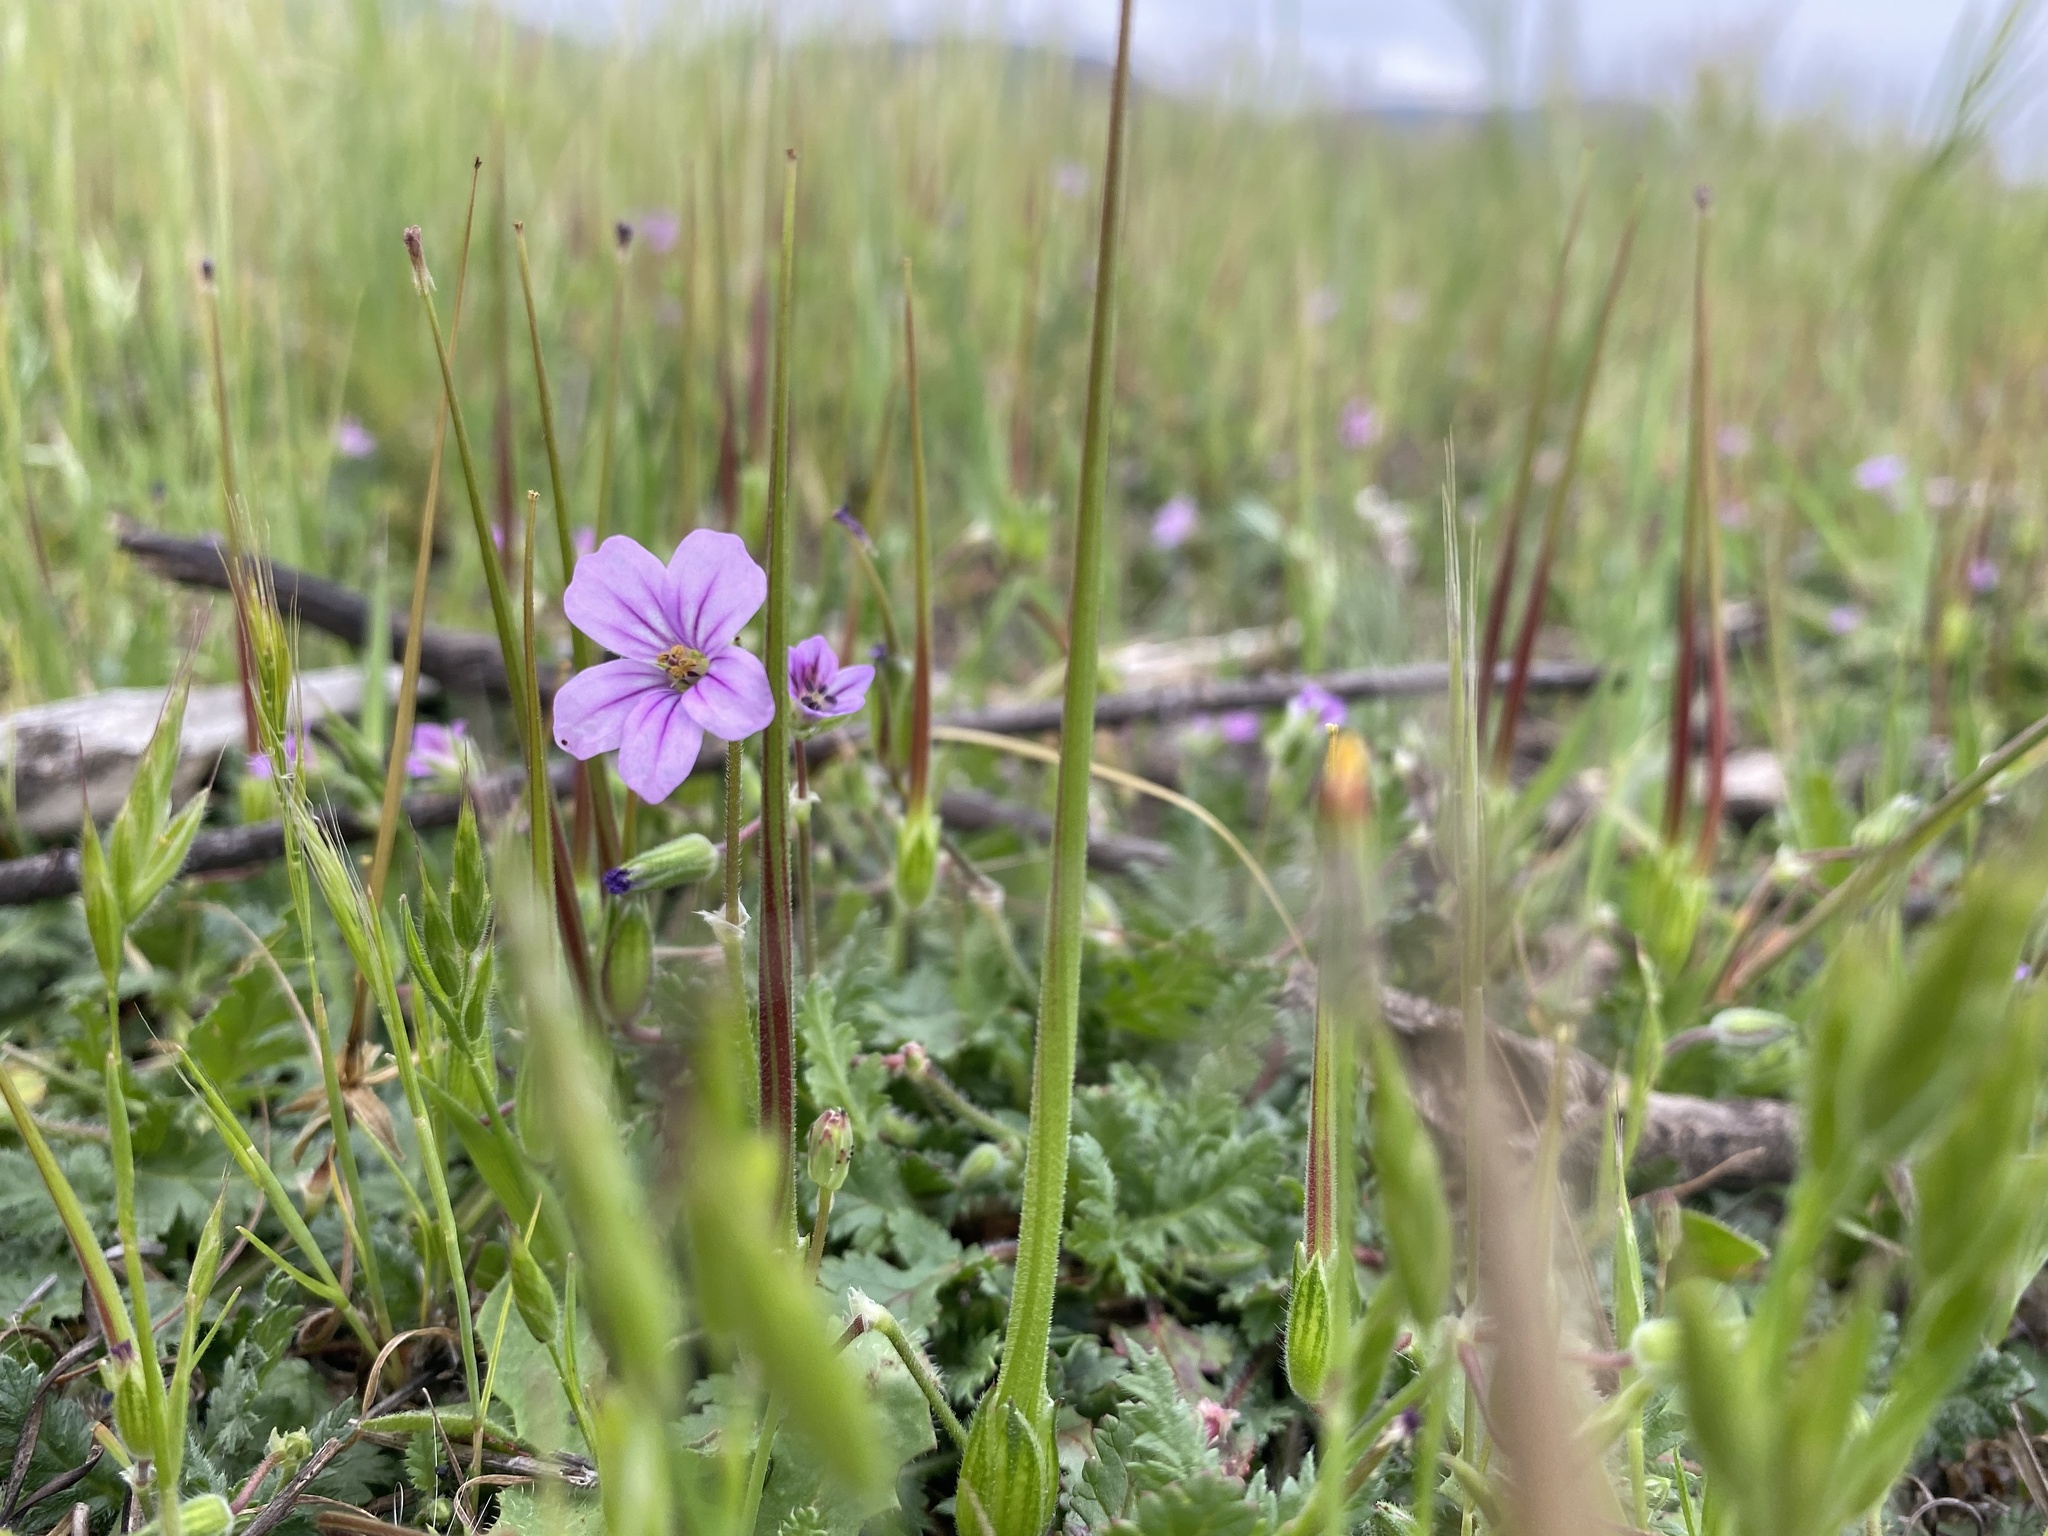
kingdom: Plantae
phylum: Tracheophyta
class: Magnoliopsida
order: Geraniales
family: Geraniaceae
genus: Erodium
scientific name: Erodium botrys
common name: Mediterranean stork's-bill
